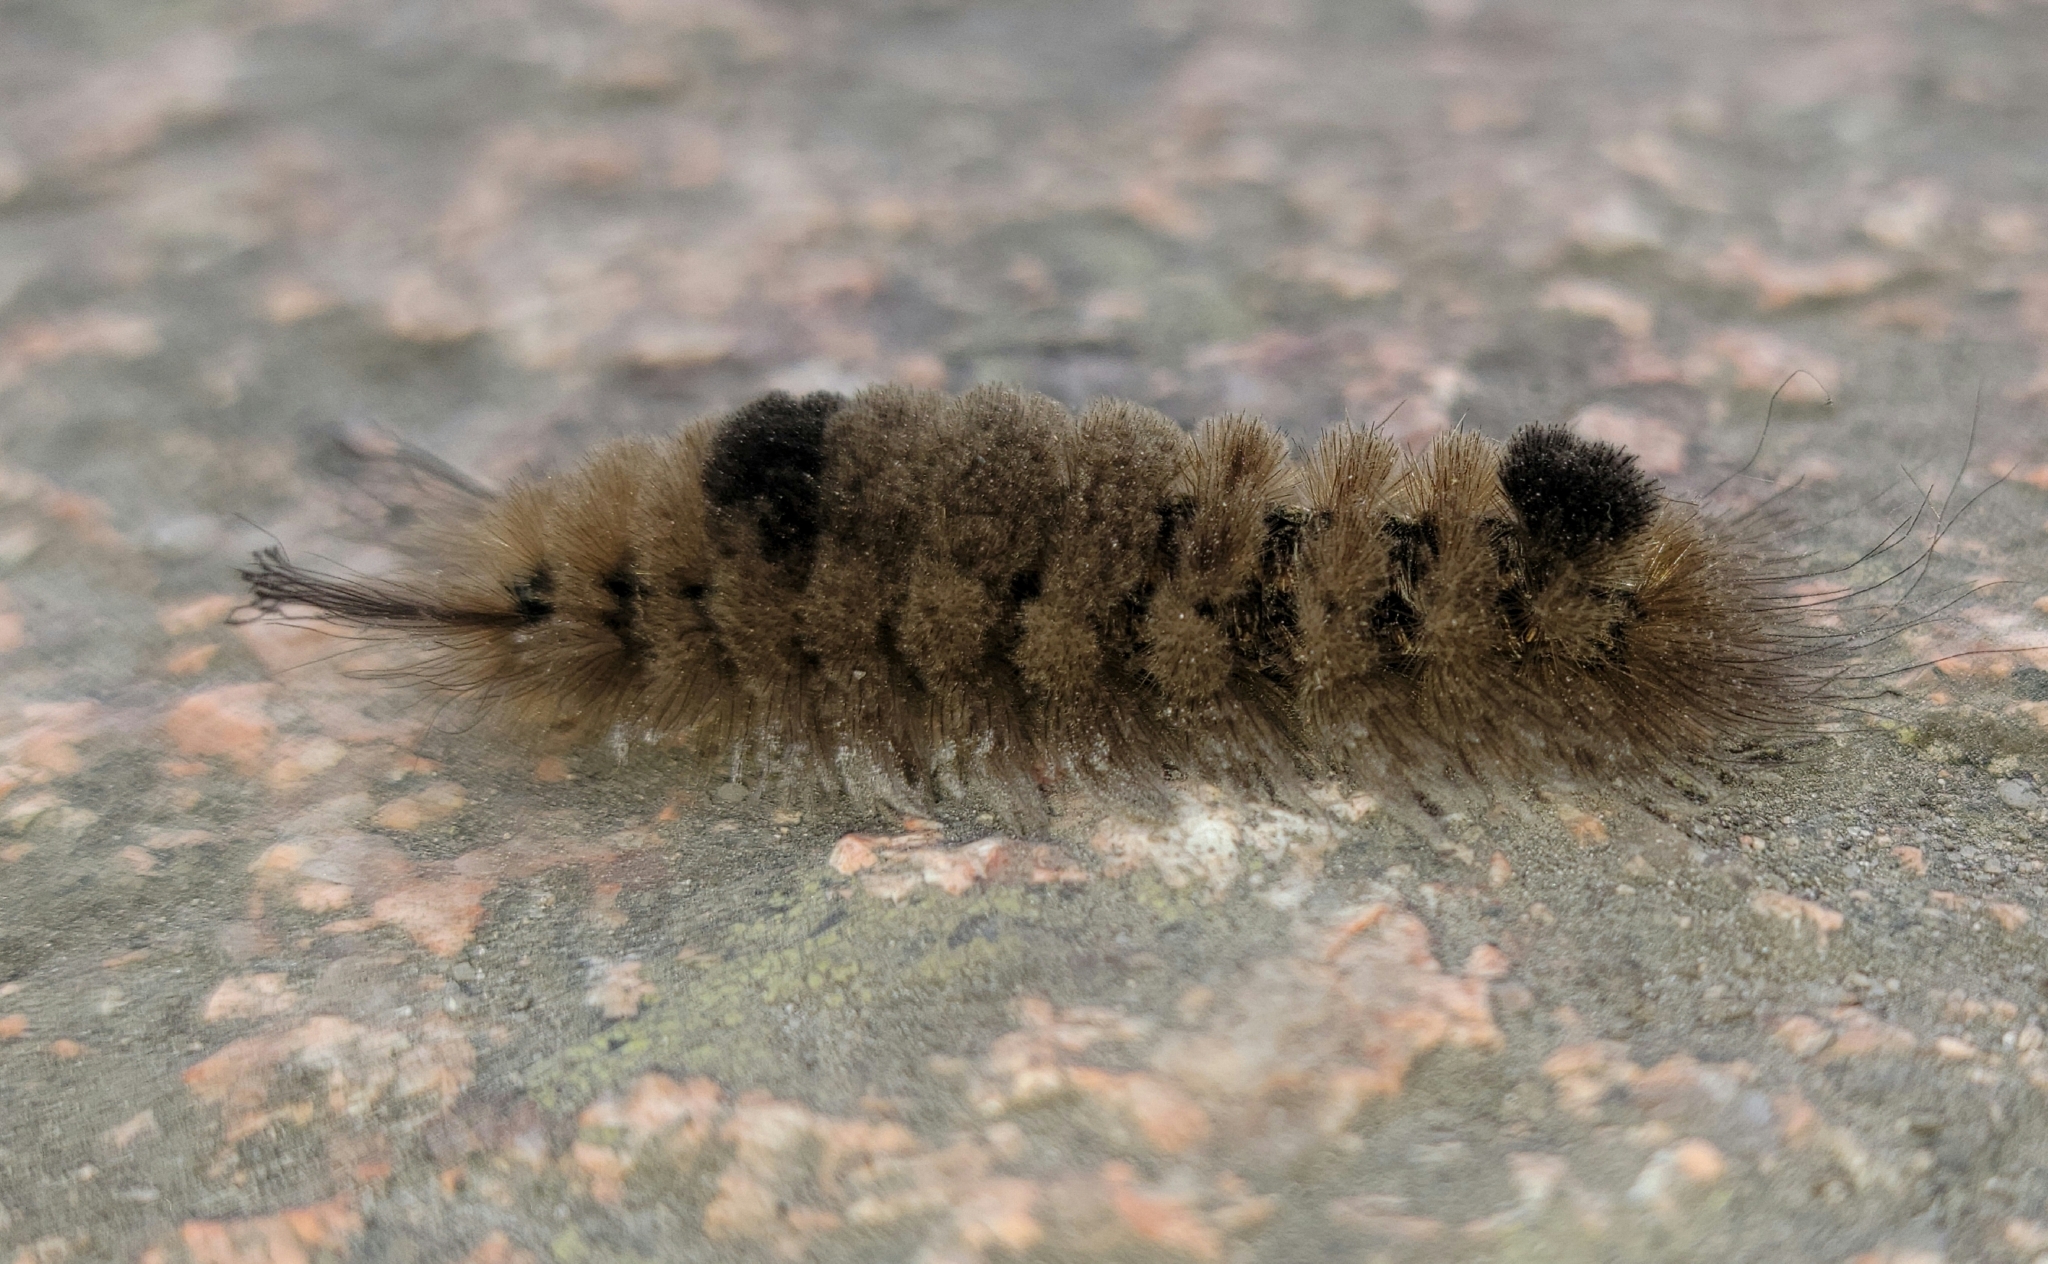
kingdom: Animalia
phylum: Arthropoda
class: Insecta
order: Lepidoptera
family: Erebidae
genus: Dasychira
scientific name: Dasychira obliquata
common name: Streaked tussock moth
